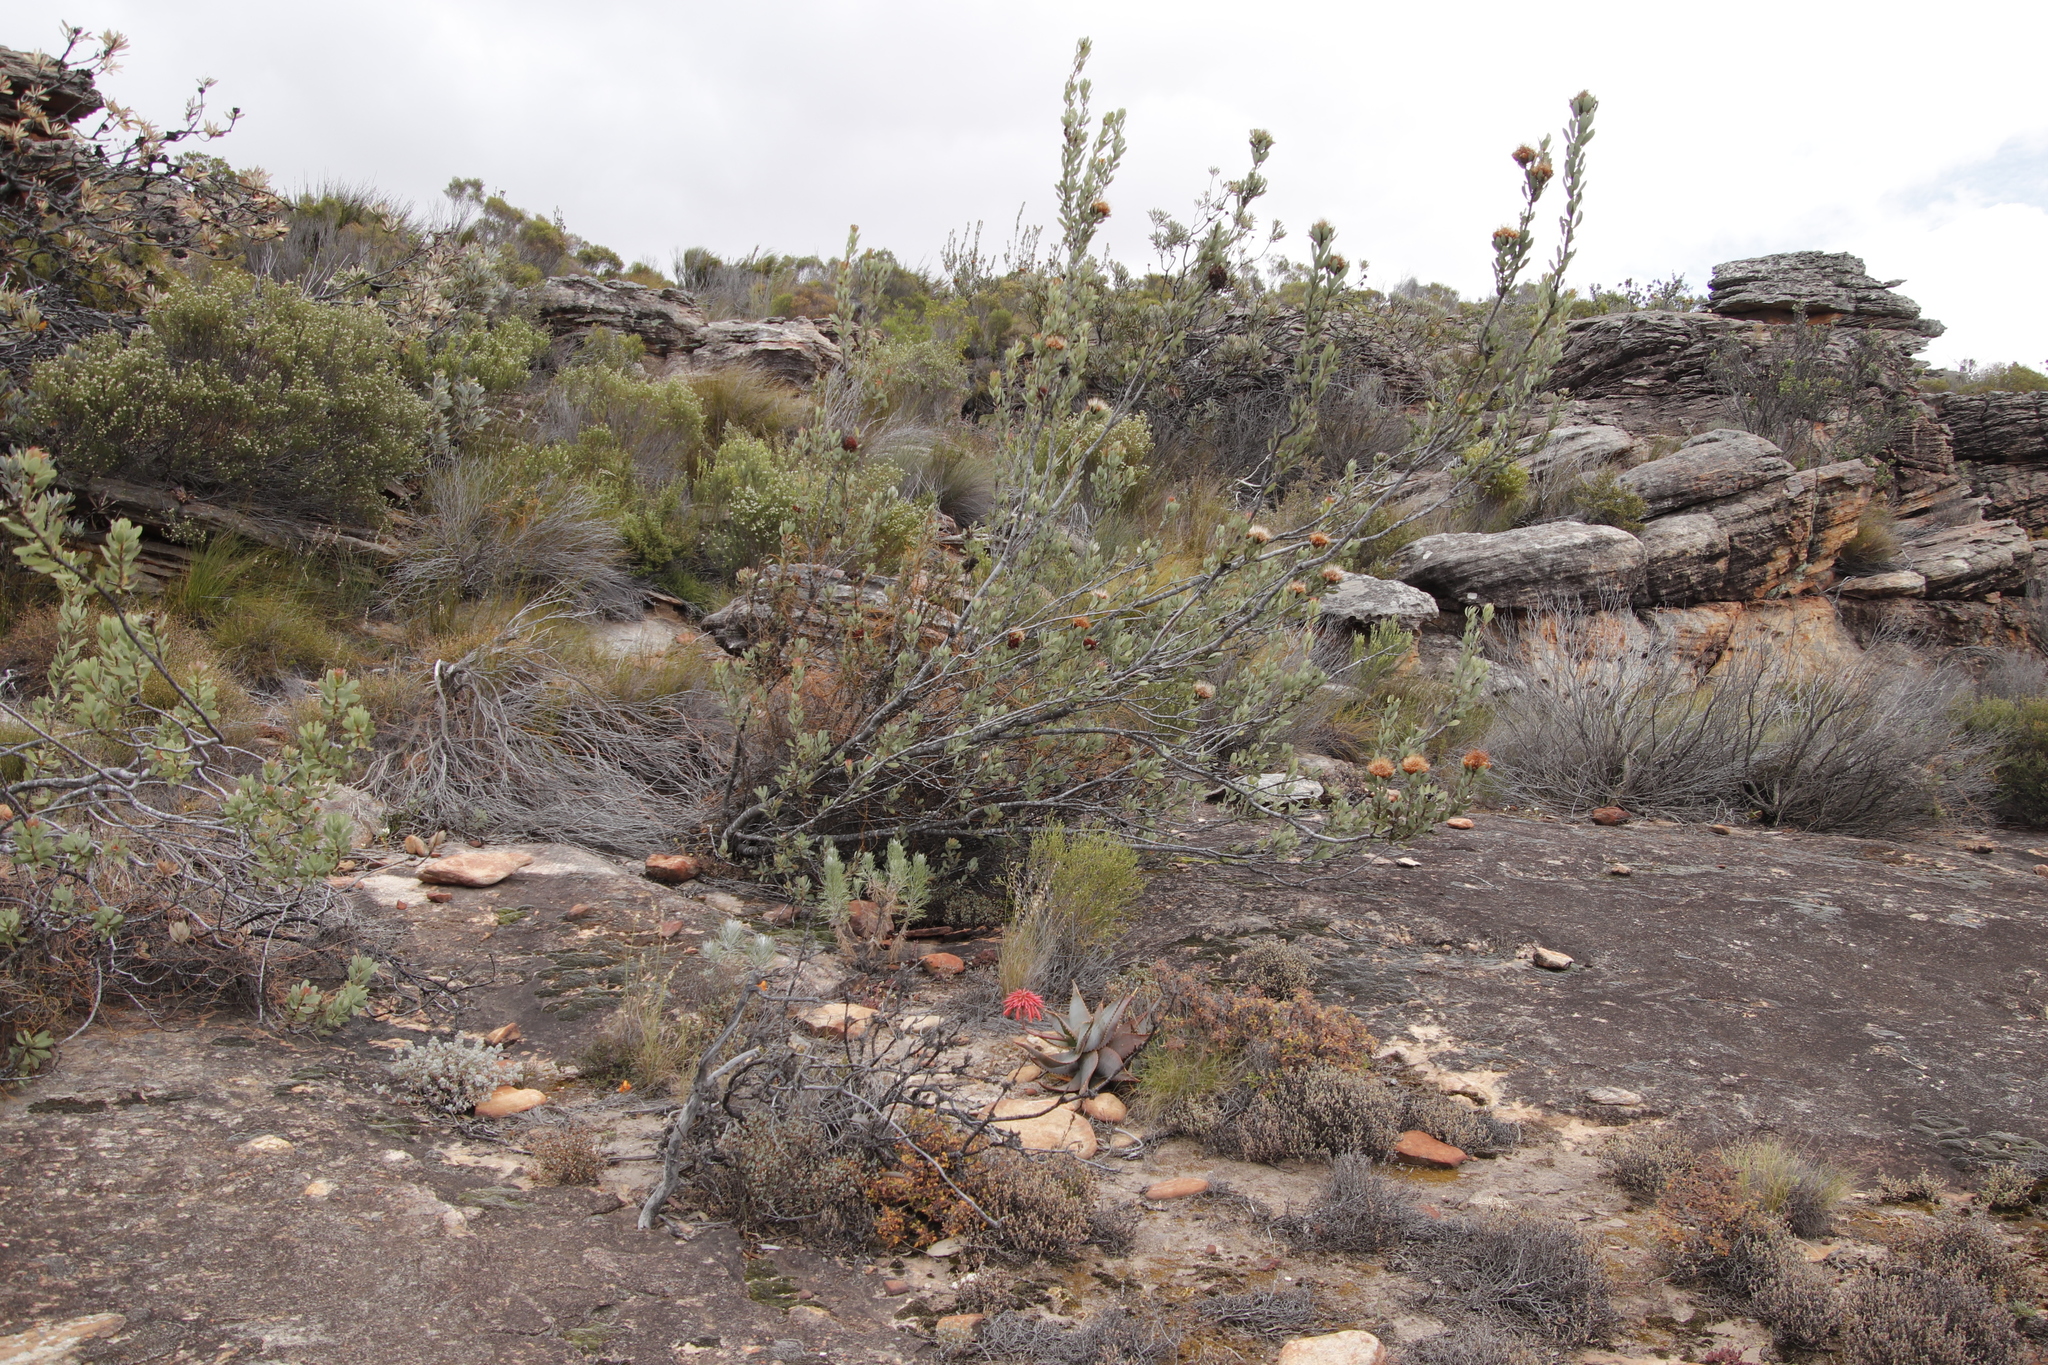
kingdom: Plantae
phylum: Tracheophyta
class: Magnoliopsida
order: Proteales
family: Proteaceae
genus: Protea
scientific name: Protea glabra
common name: Chestnut sugarbush
